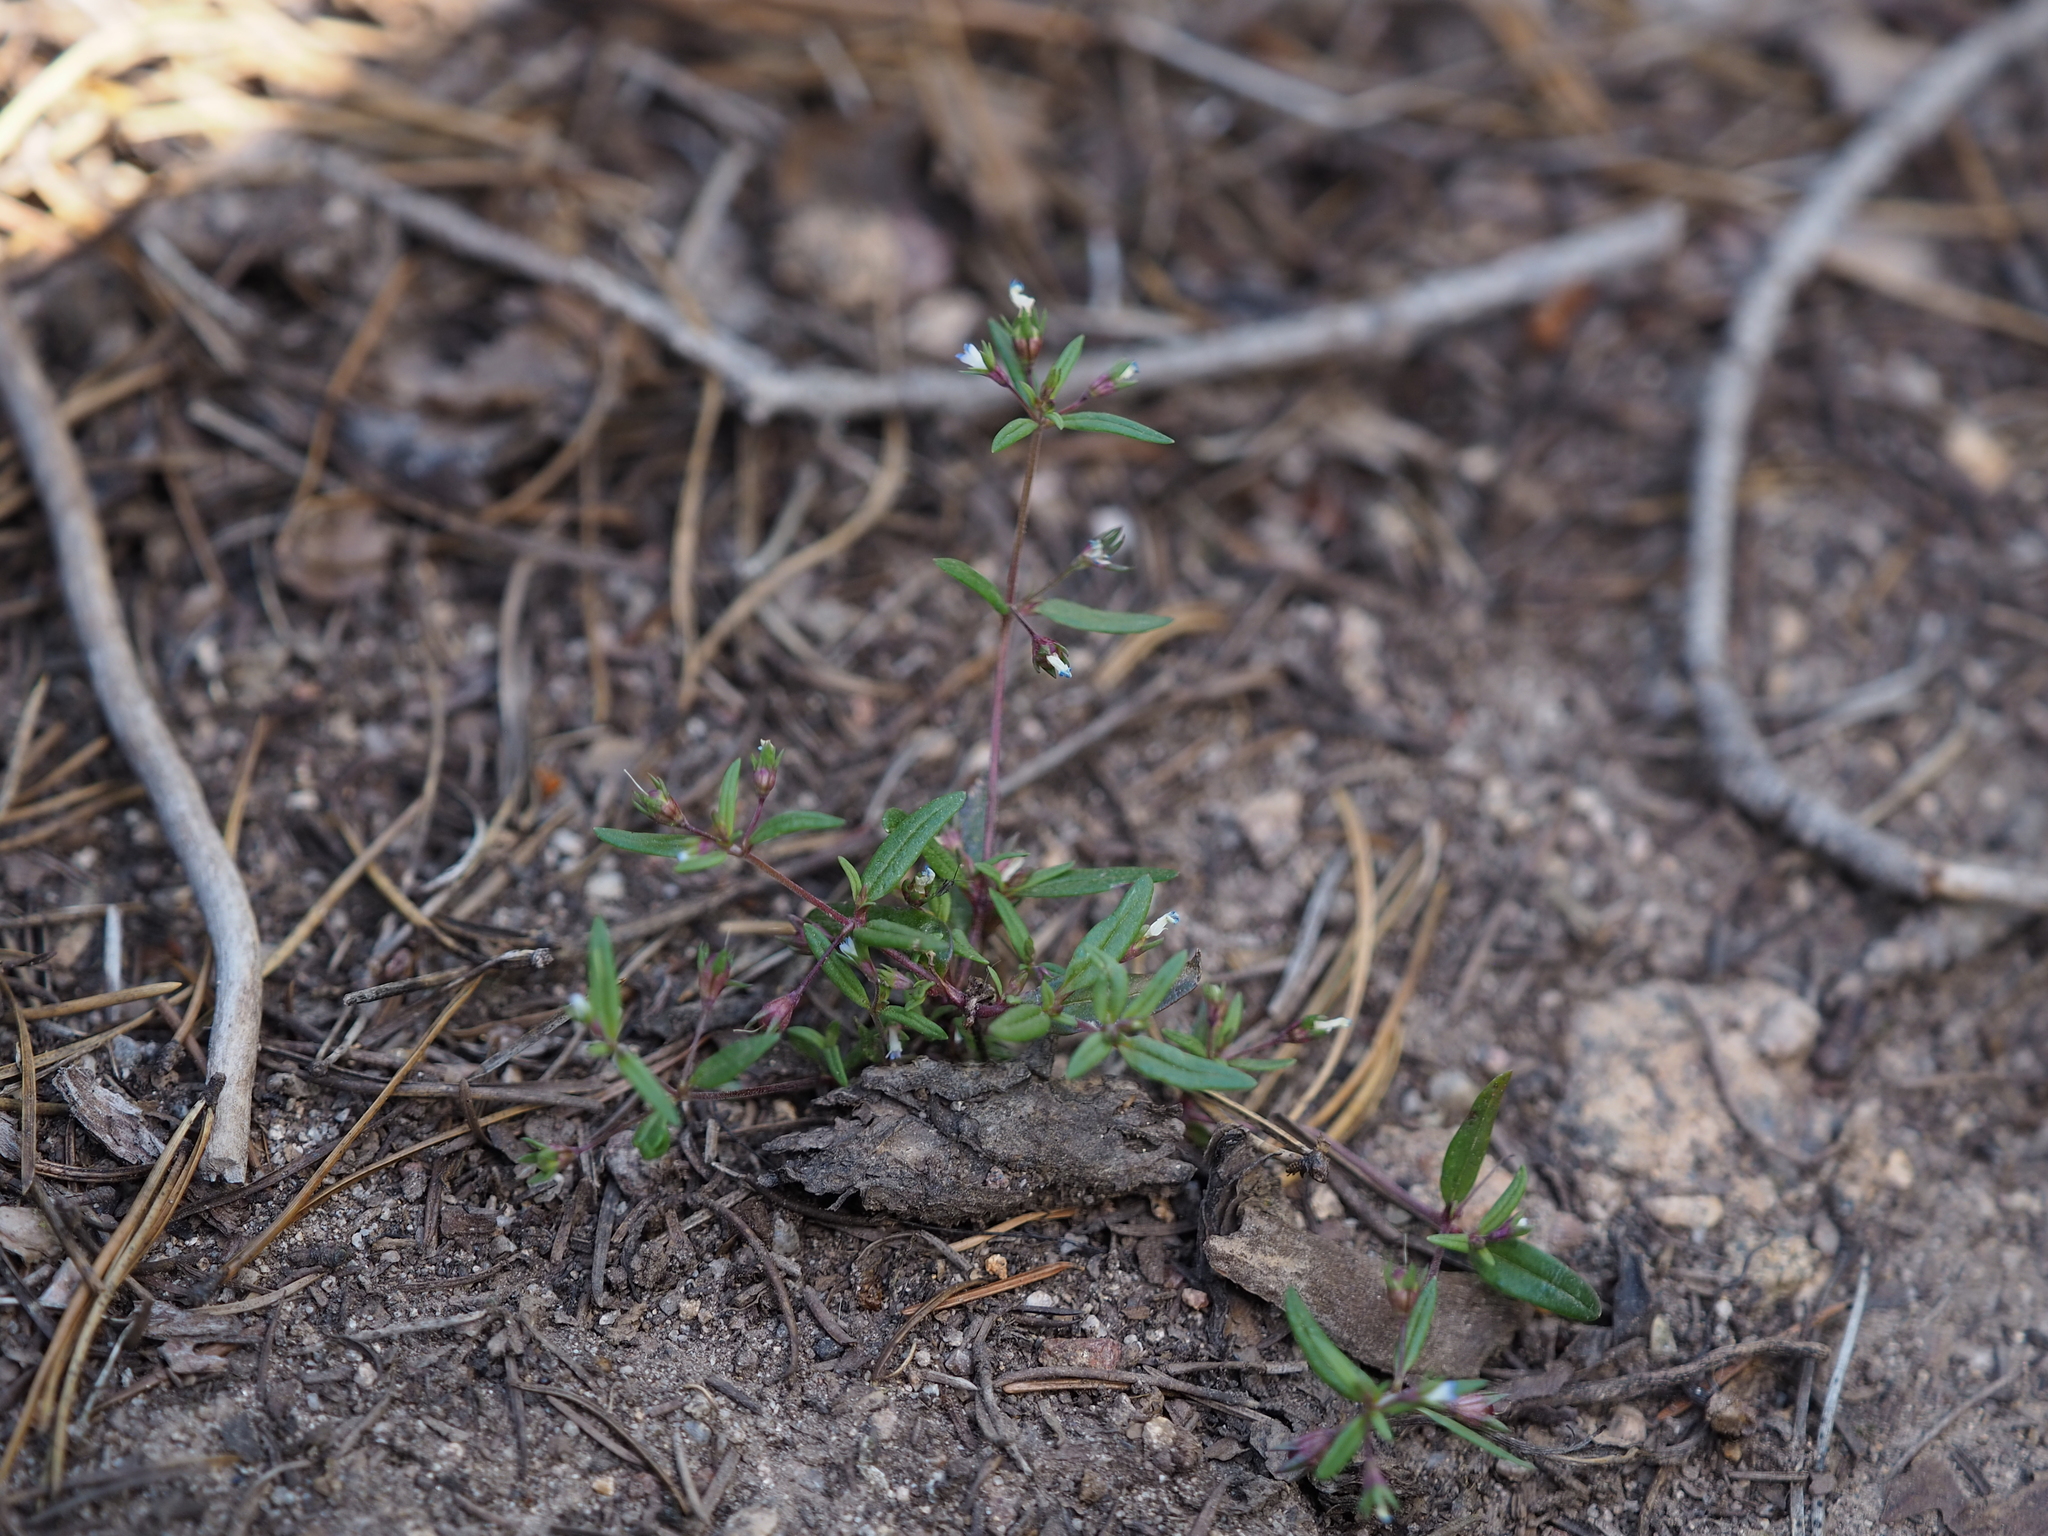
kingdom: Plantae
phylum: Tracheophyta
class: Magnoliopsida
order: Lamiales
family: Plantaginaceae
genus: Collinsia
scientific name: Collinsia parviflora
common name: Blue-lips
